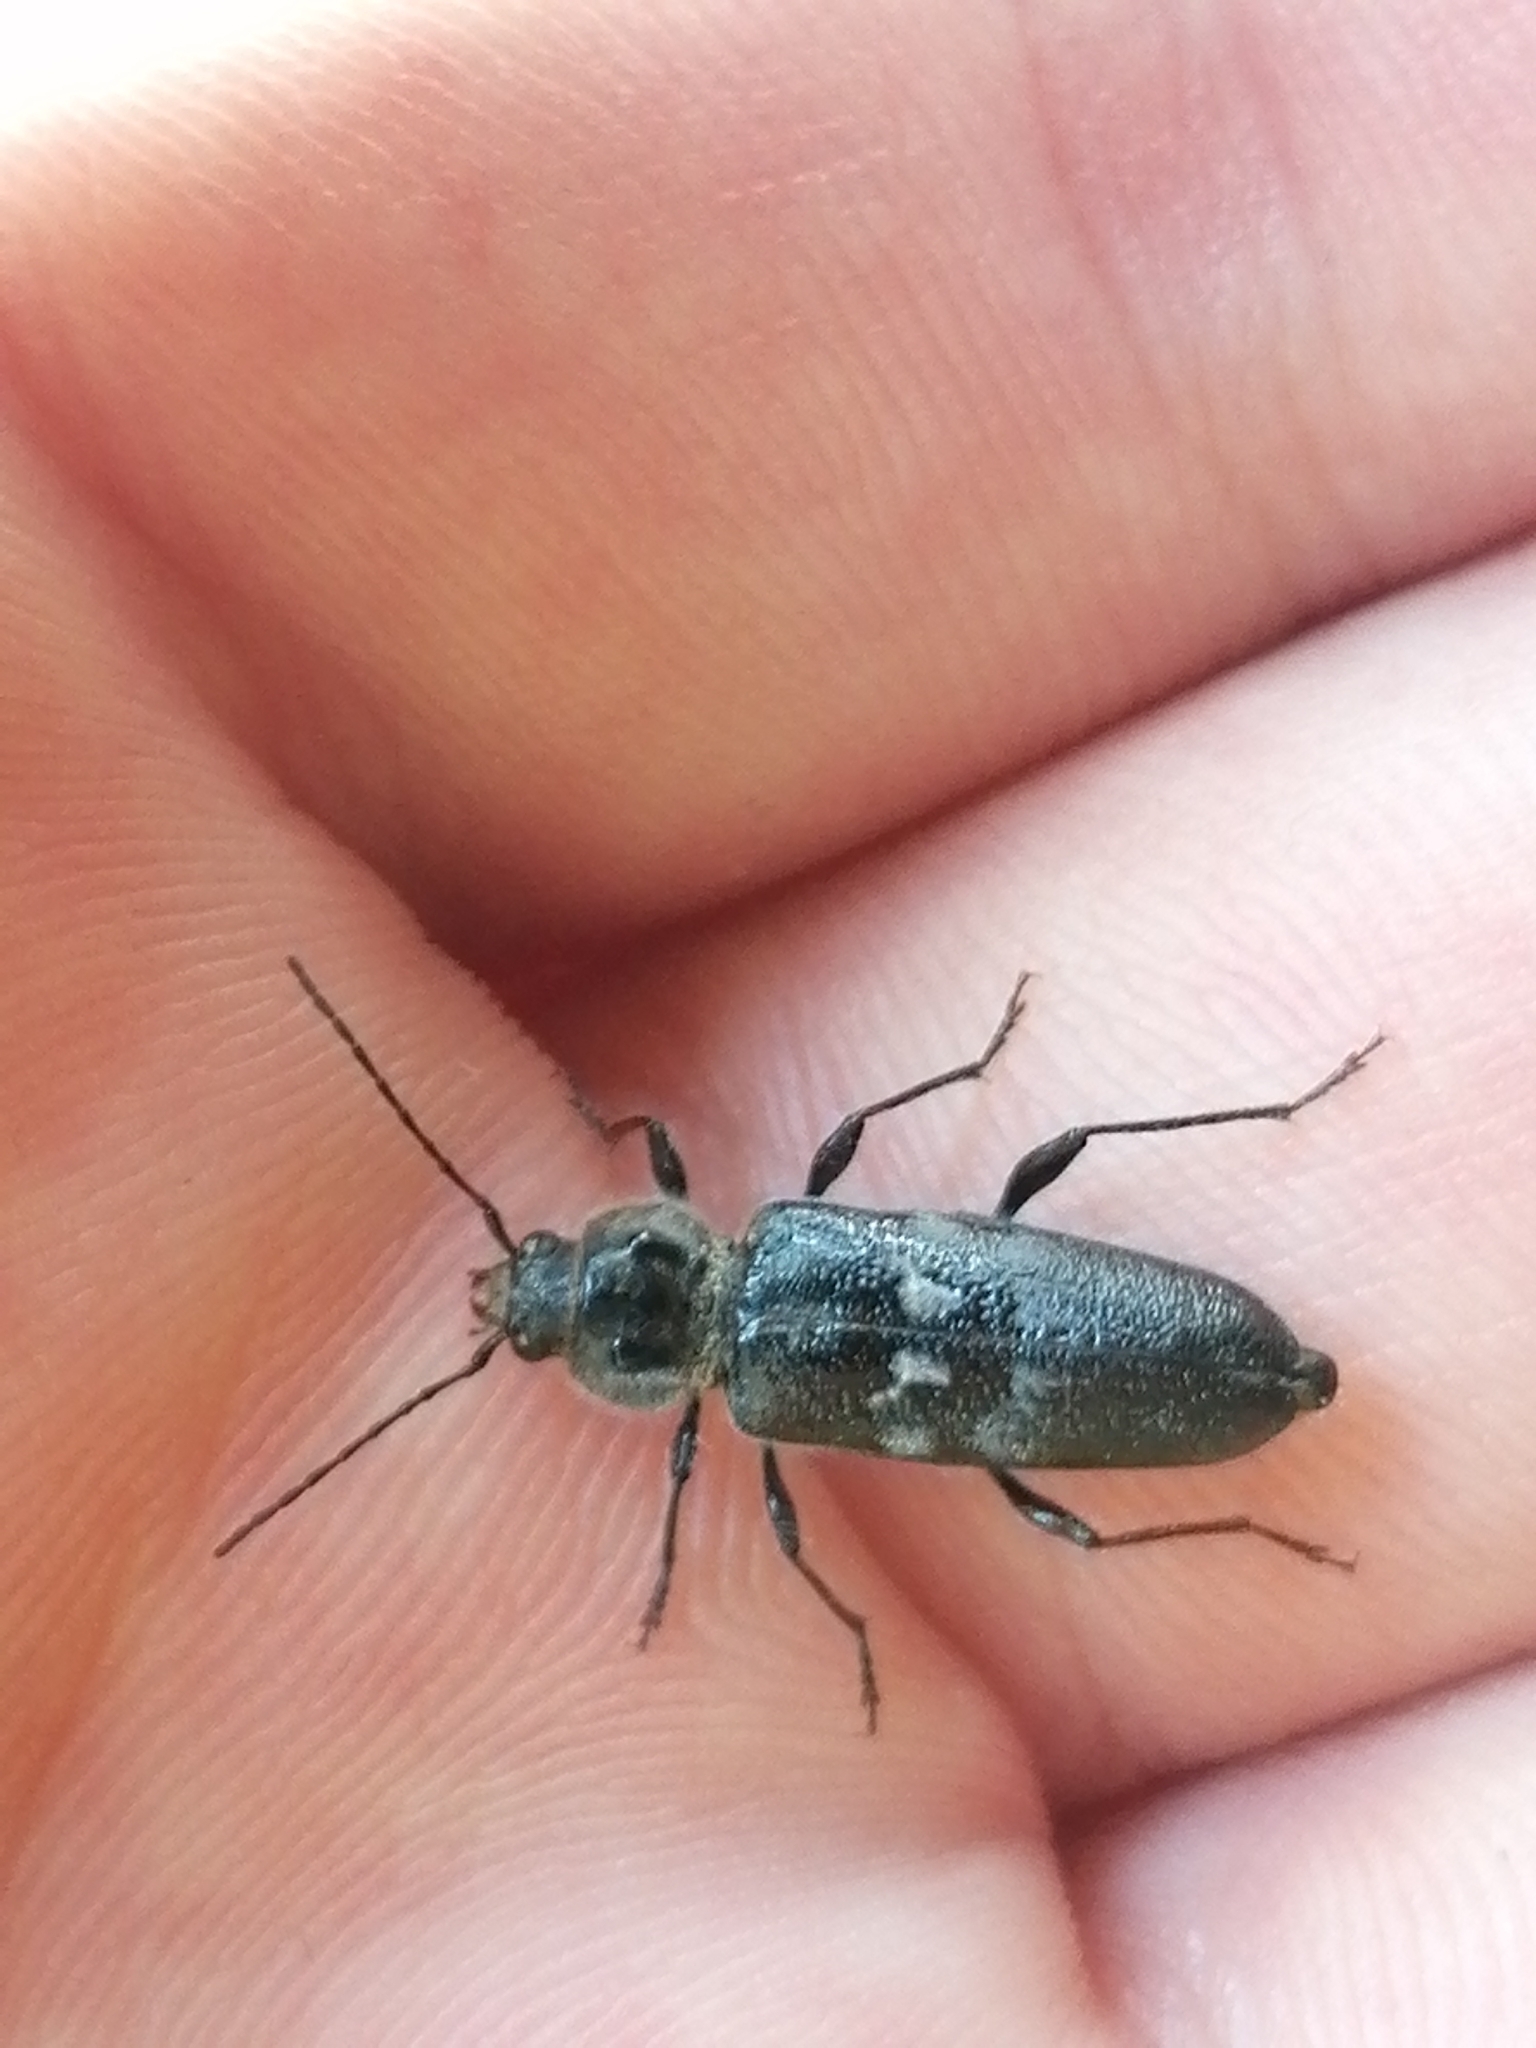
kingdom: Animalia
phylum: Arthropoda
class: Insecta
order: Coleoptera
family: Cerambycidae
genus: Hylotrupes
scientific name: Hylotrupes bajulus
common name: Old house borer
